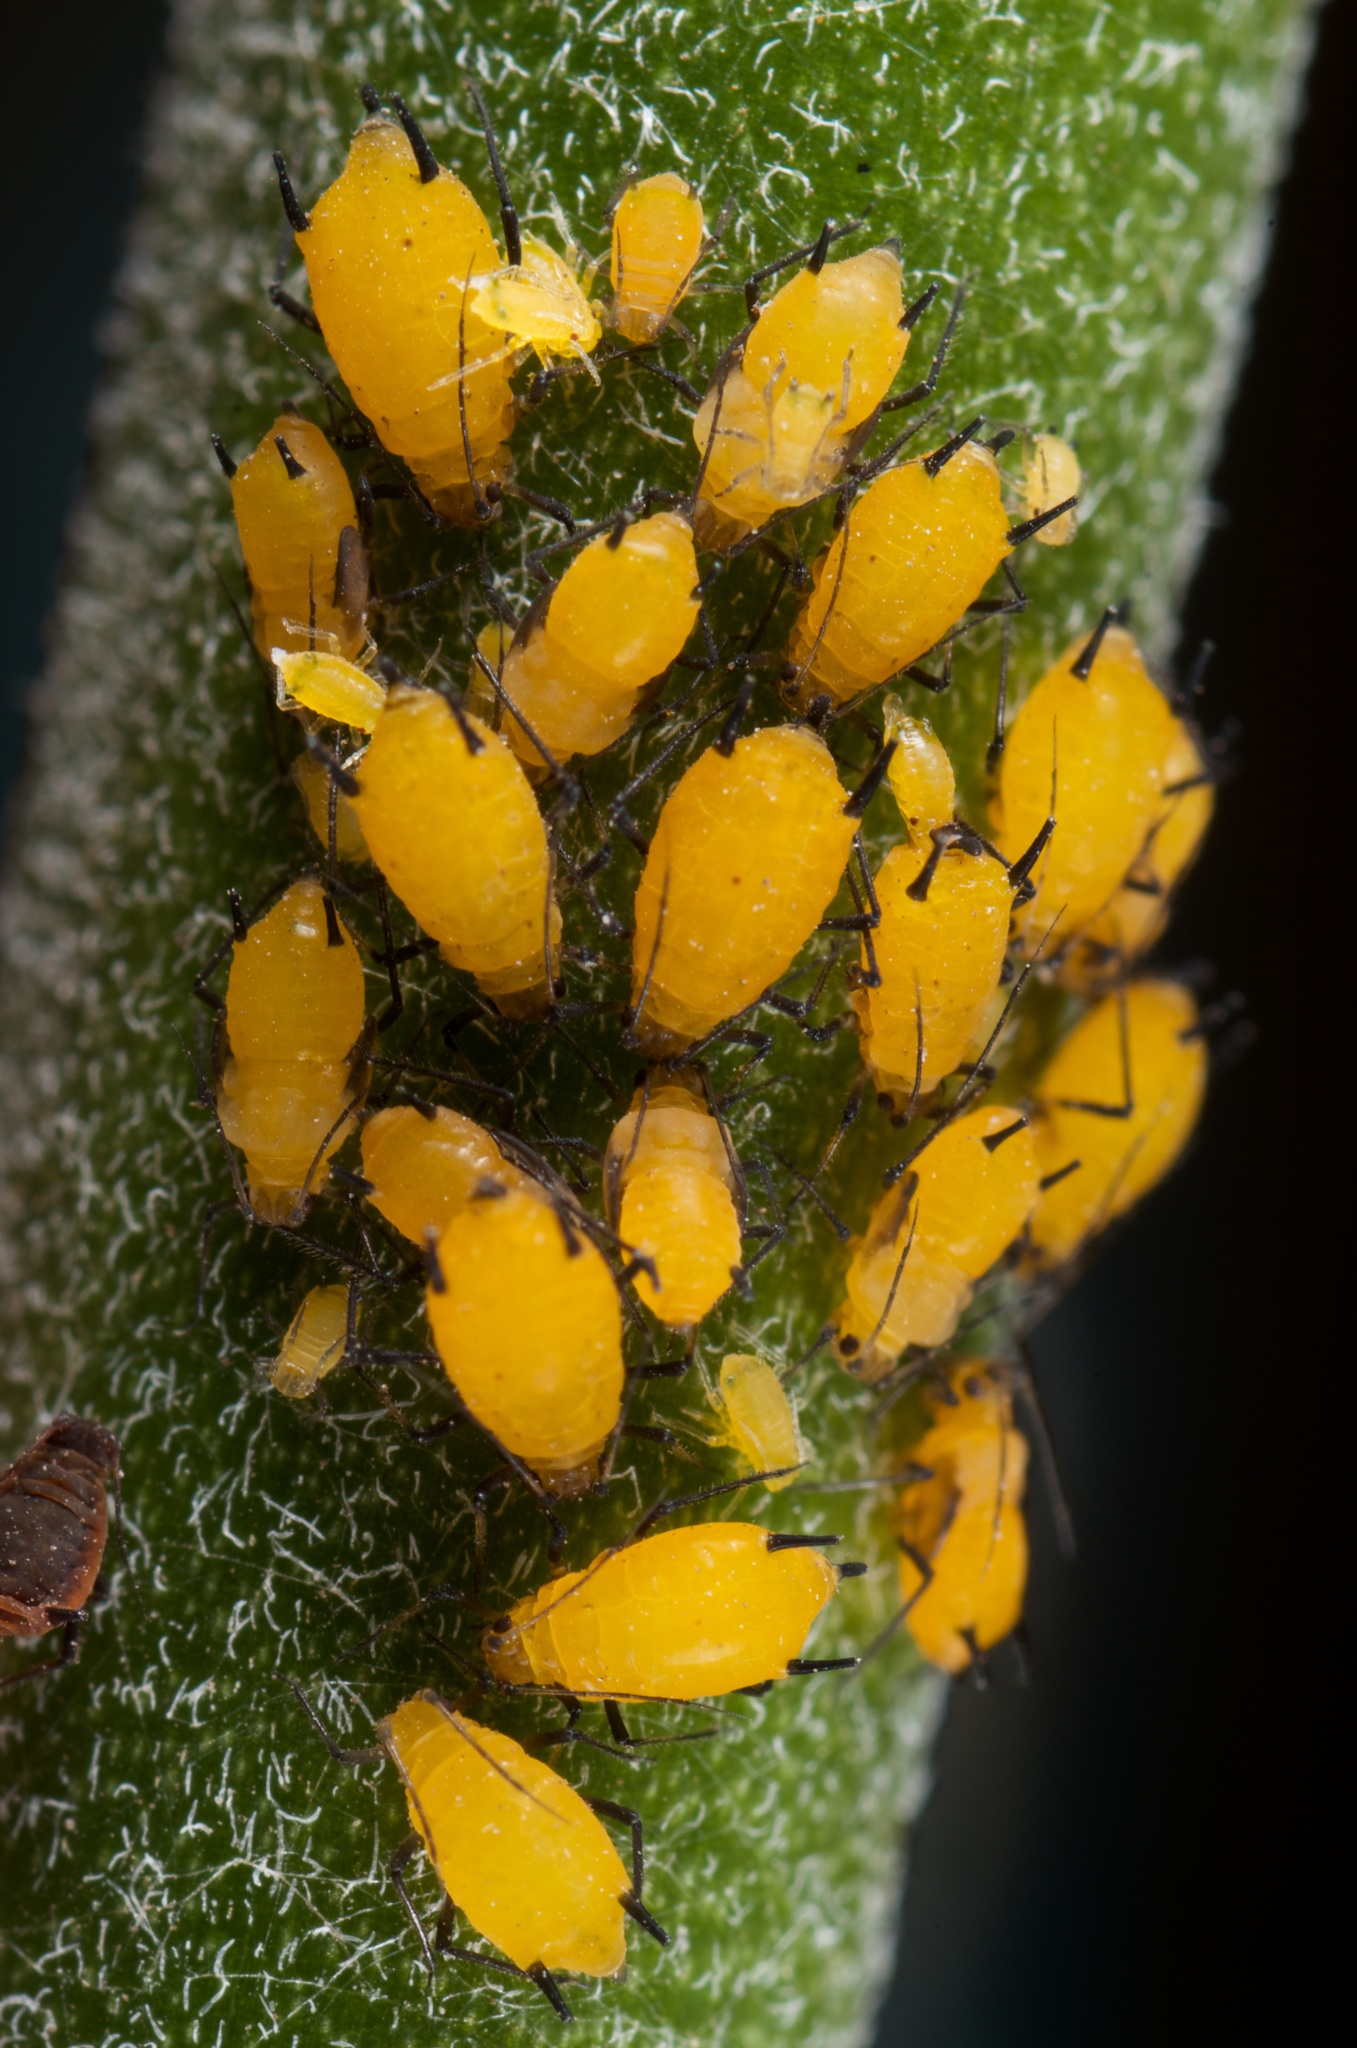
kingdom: Animalia
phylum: Arthropoda
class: Insecta
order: Hemiptera
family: Aphididae
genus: Aphis
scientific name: Aphis nerii
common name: Oleander aphid
